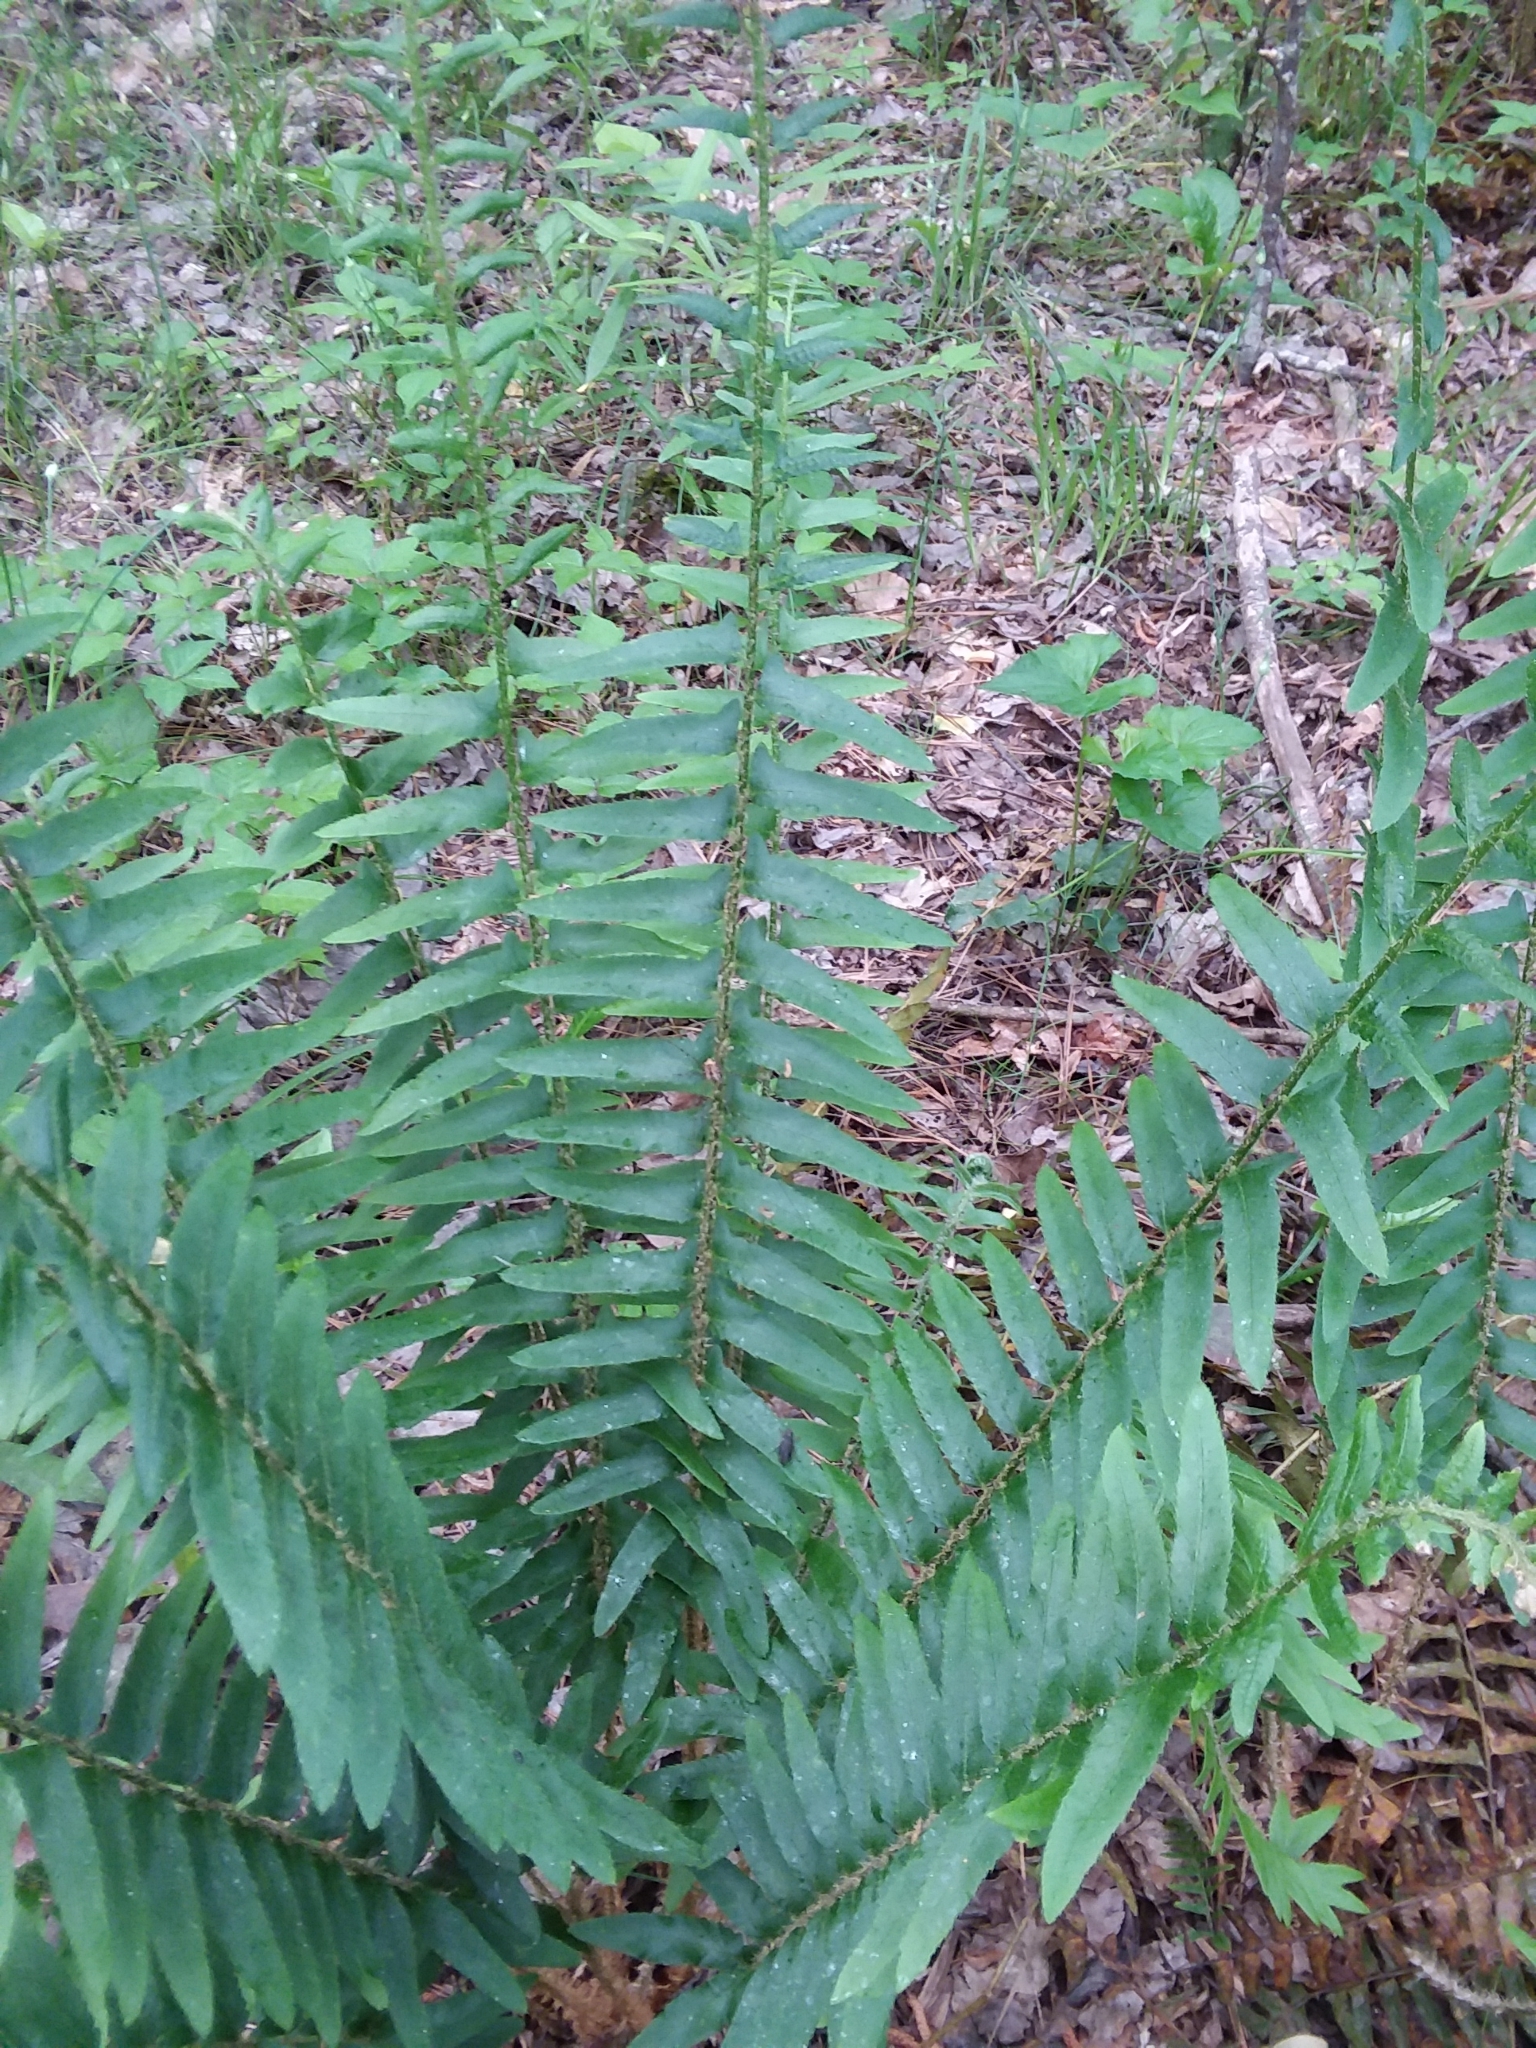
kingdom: Plantae
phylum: Tracheophyta
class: Polypodiopsida
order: Polypodiales
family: Dryopteridaceae
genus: Polystichum
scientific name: Polystichum acrostichoides
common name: Christmas fern
